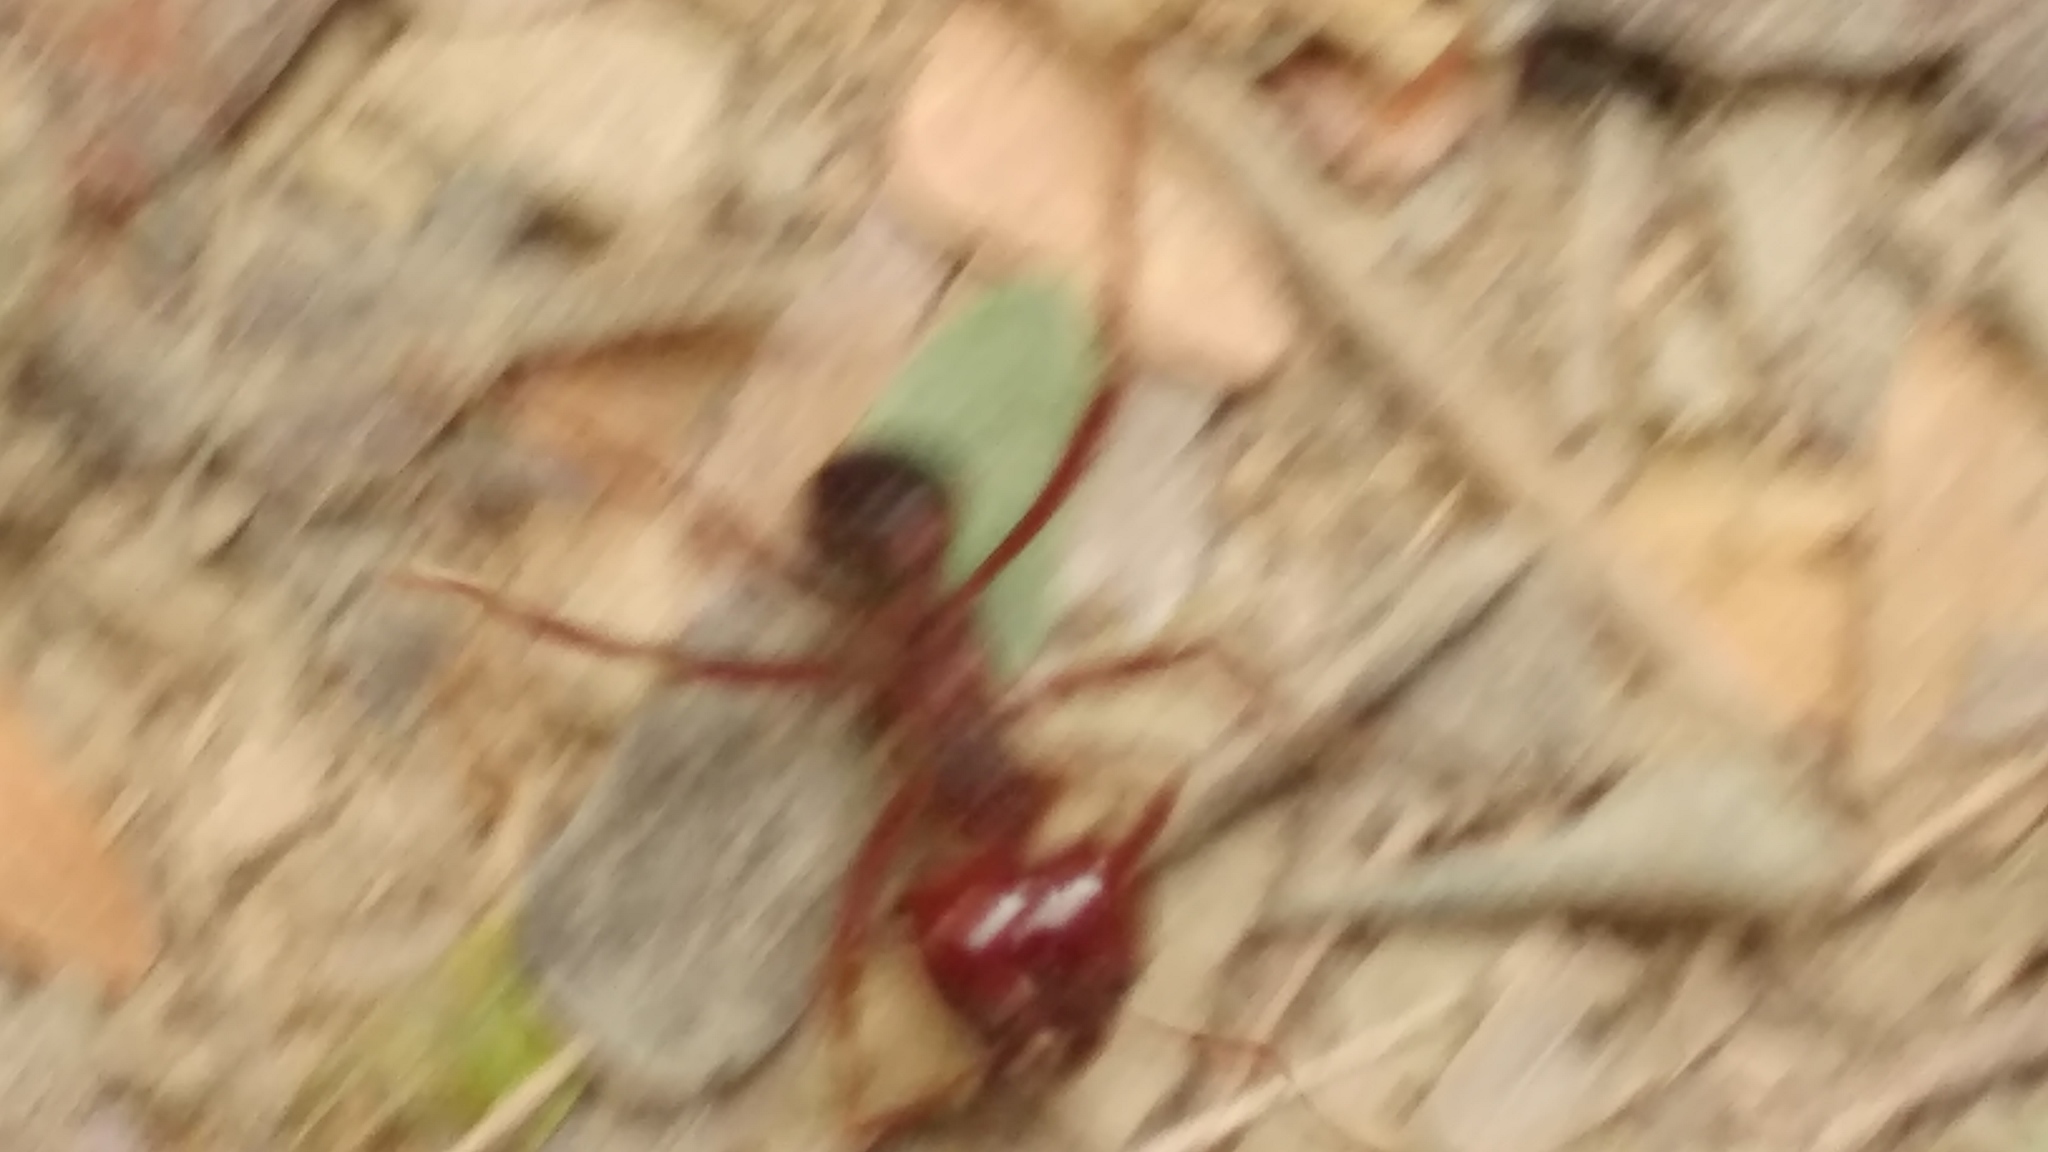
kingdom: Animalia
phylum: Arthropoda
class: Insecta
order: Hymenoptera
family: Formicidae
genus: Atta
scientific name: Atta mexicana
